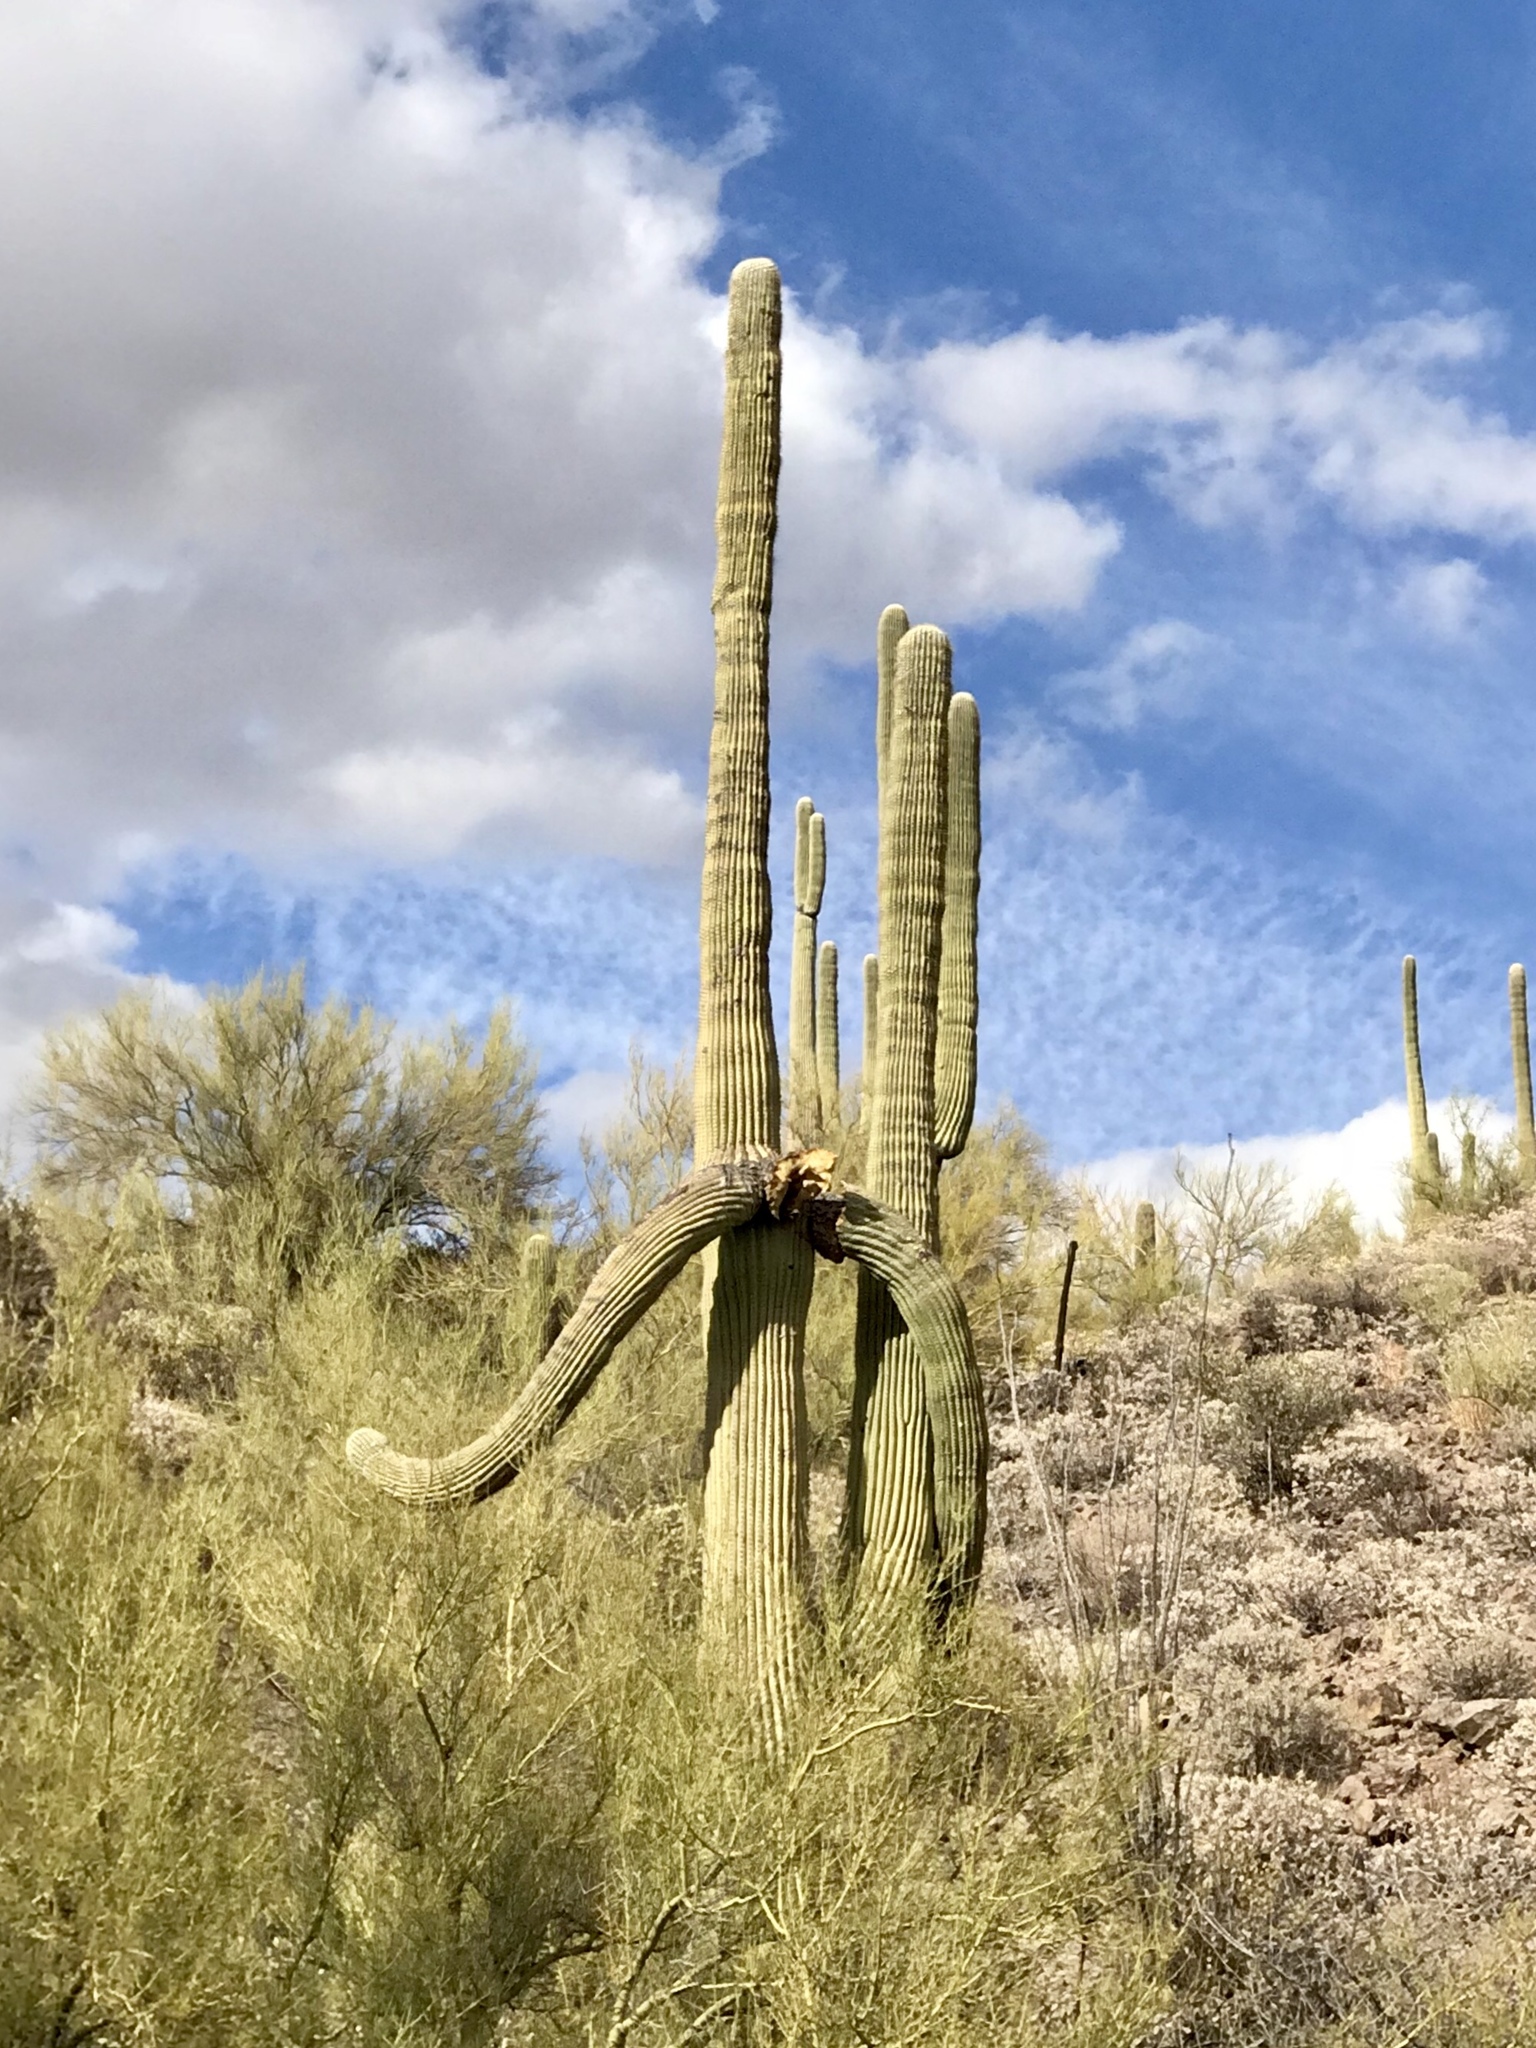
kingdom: Plantae
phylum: Tracheophyta
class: Magnoliopsida
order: Caryophyllales
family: Cactaceae
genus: Carnegiea
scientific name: Carnegiea gigantea
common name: Saguaro
